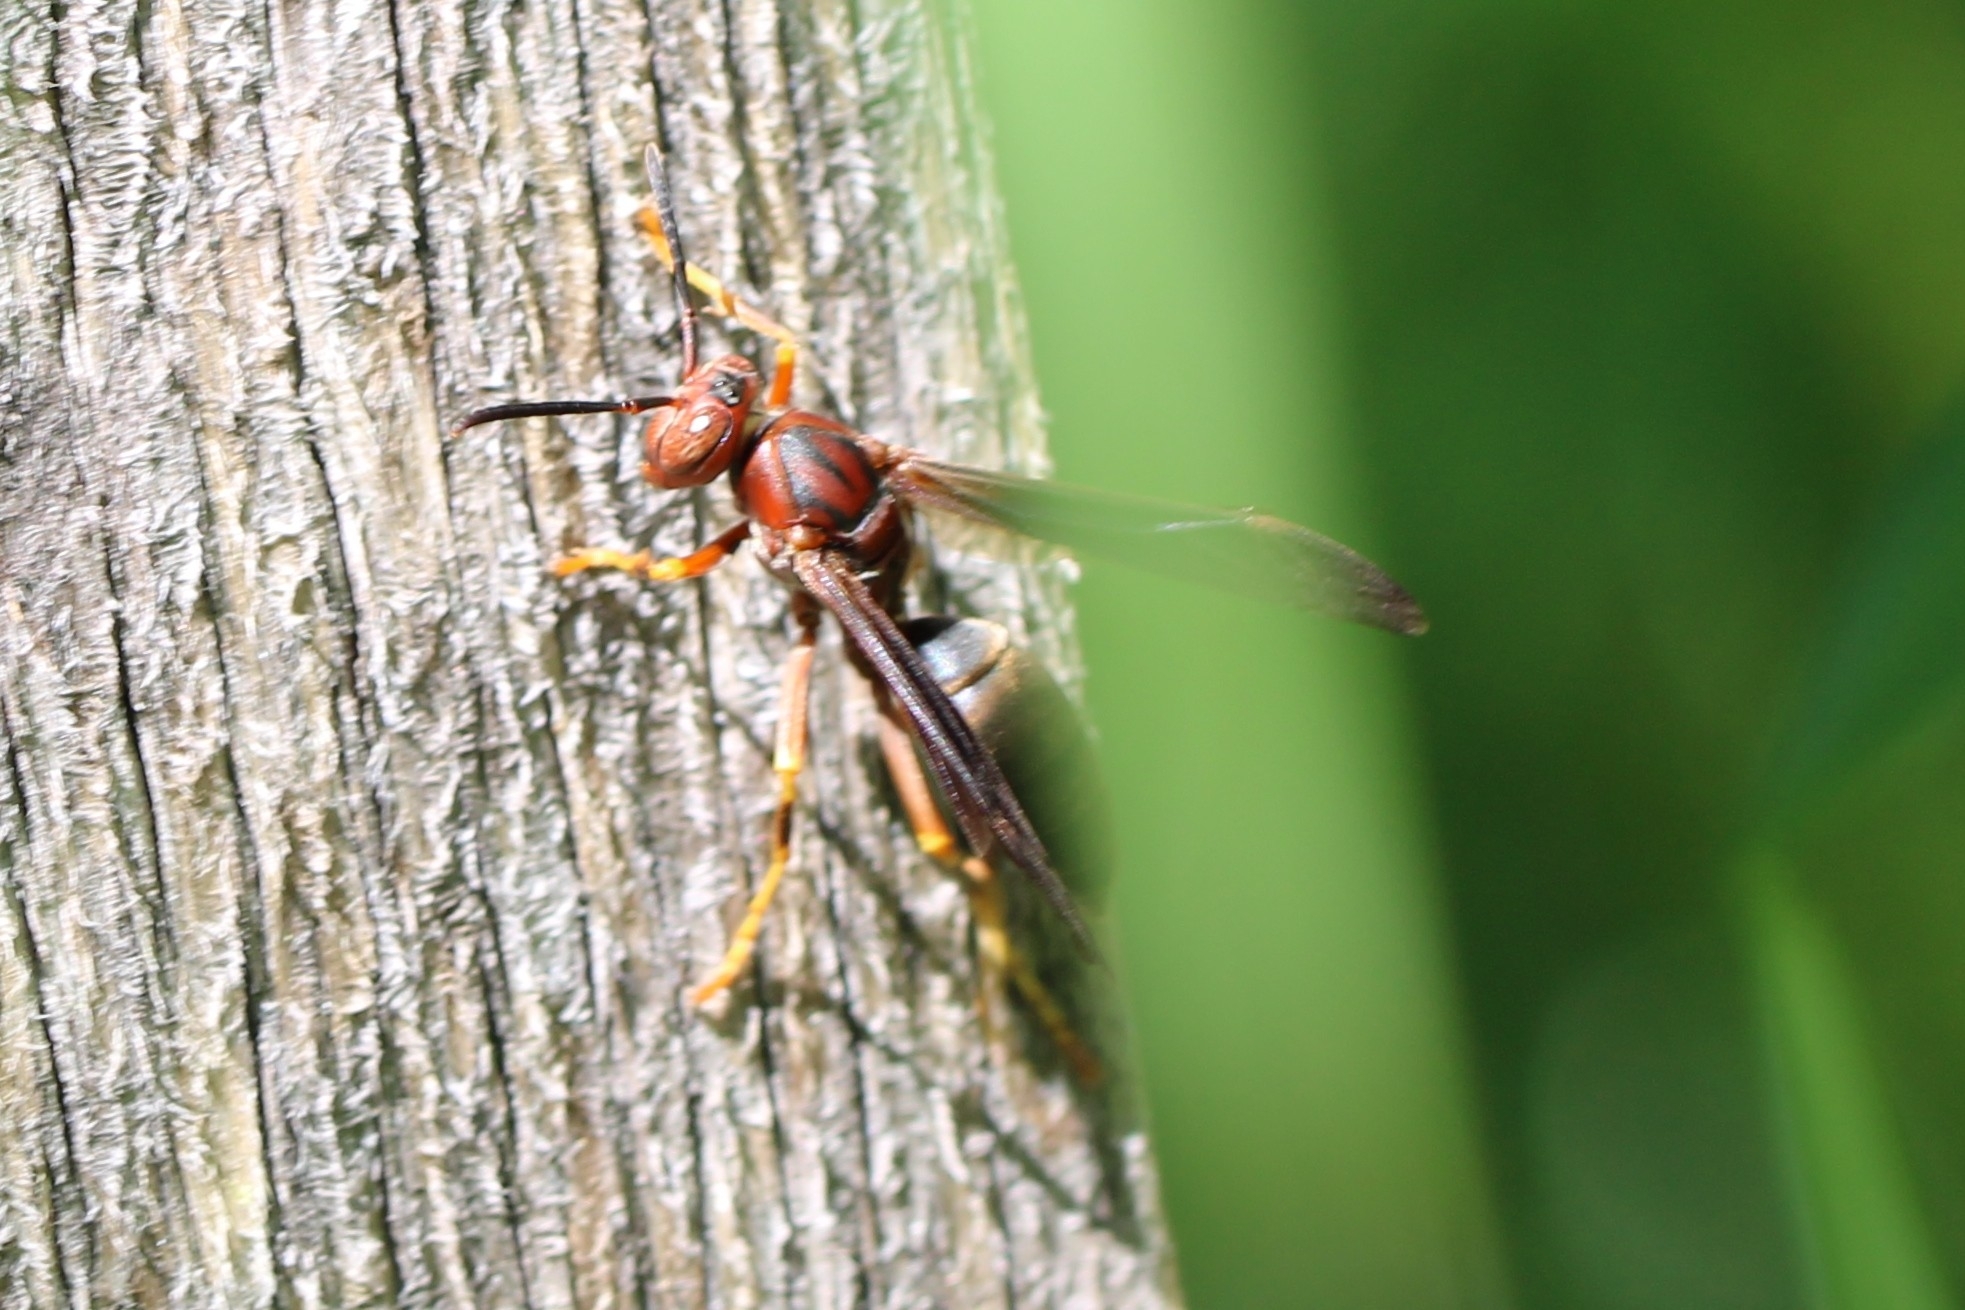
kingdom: Animalia
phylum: Arthropoda
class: Insecta
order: Hymenoptera
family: Eumenidae
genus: Polistes
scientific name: Polistes metricus
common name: Metric paper wasp
